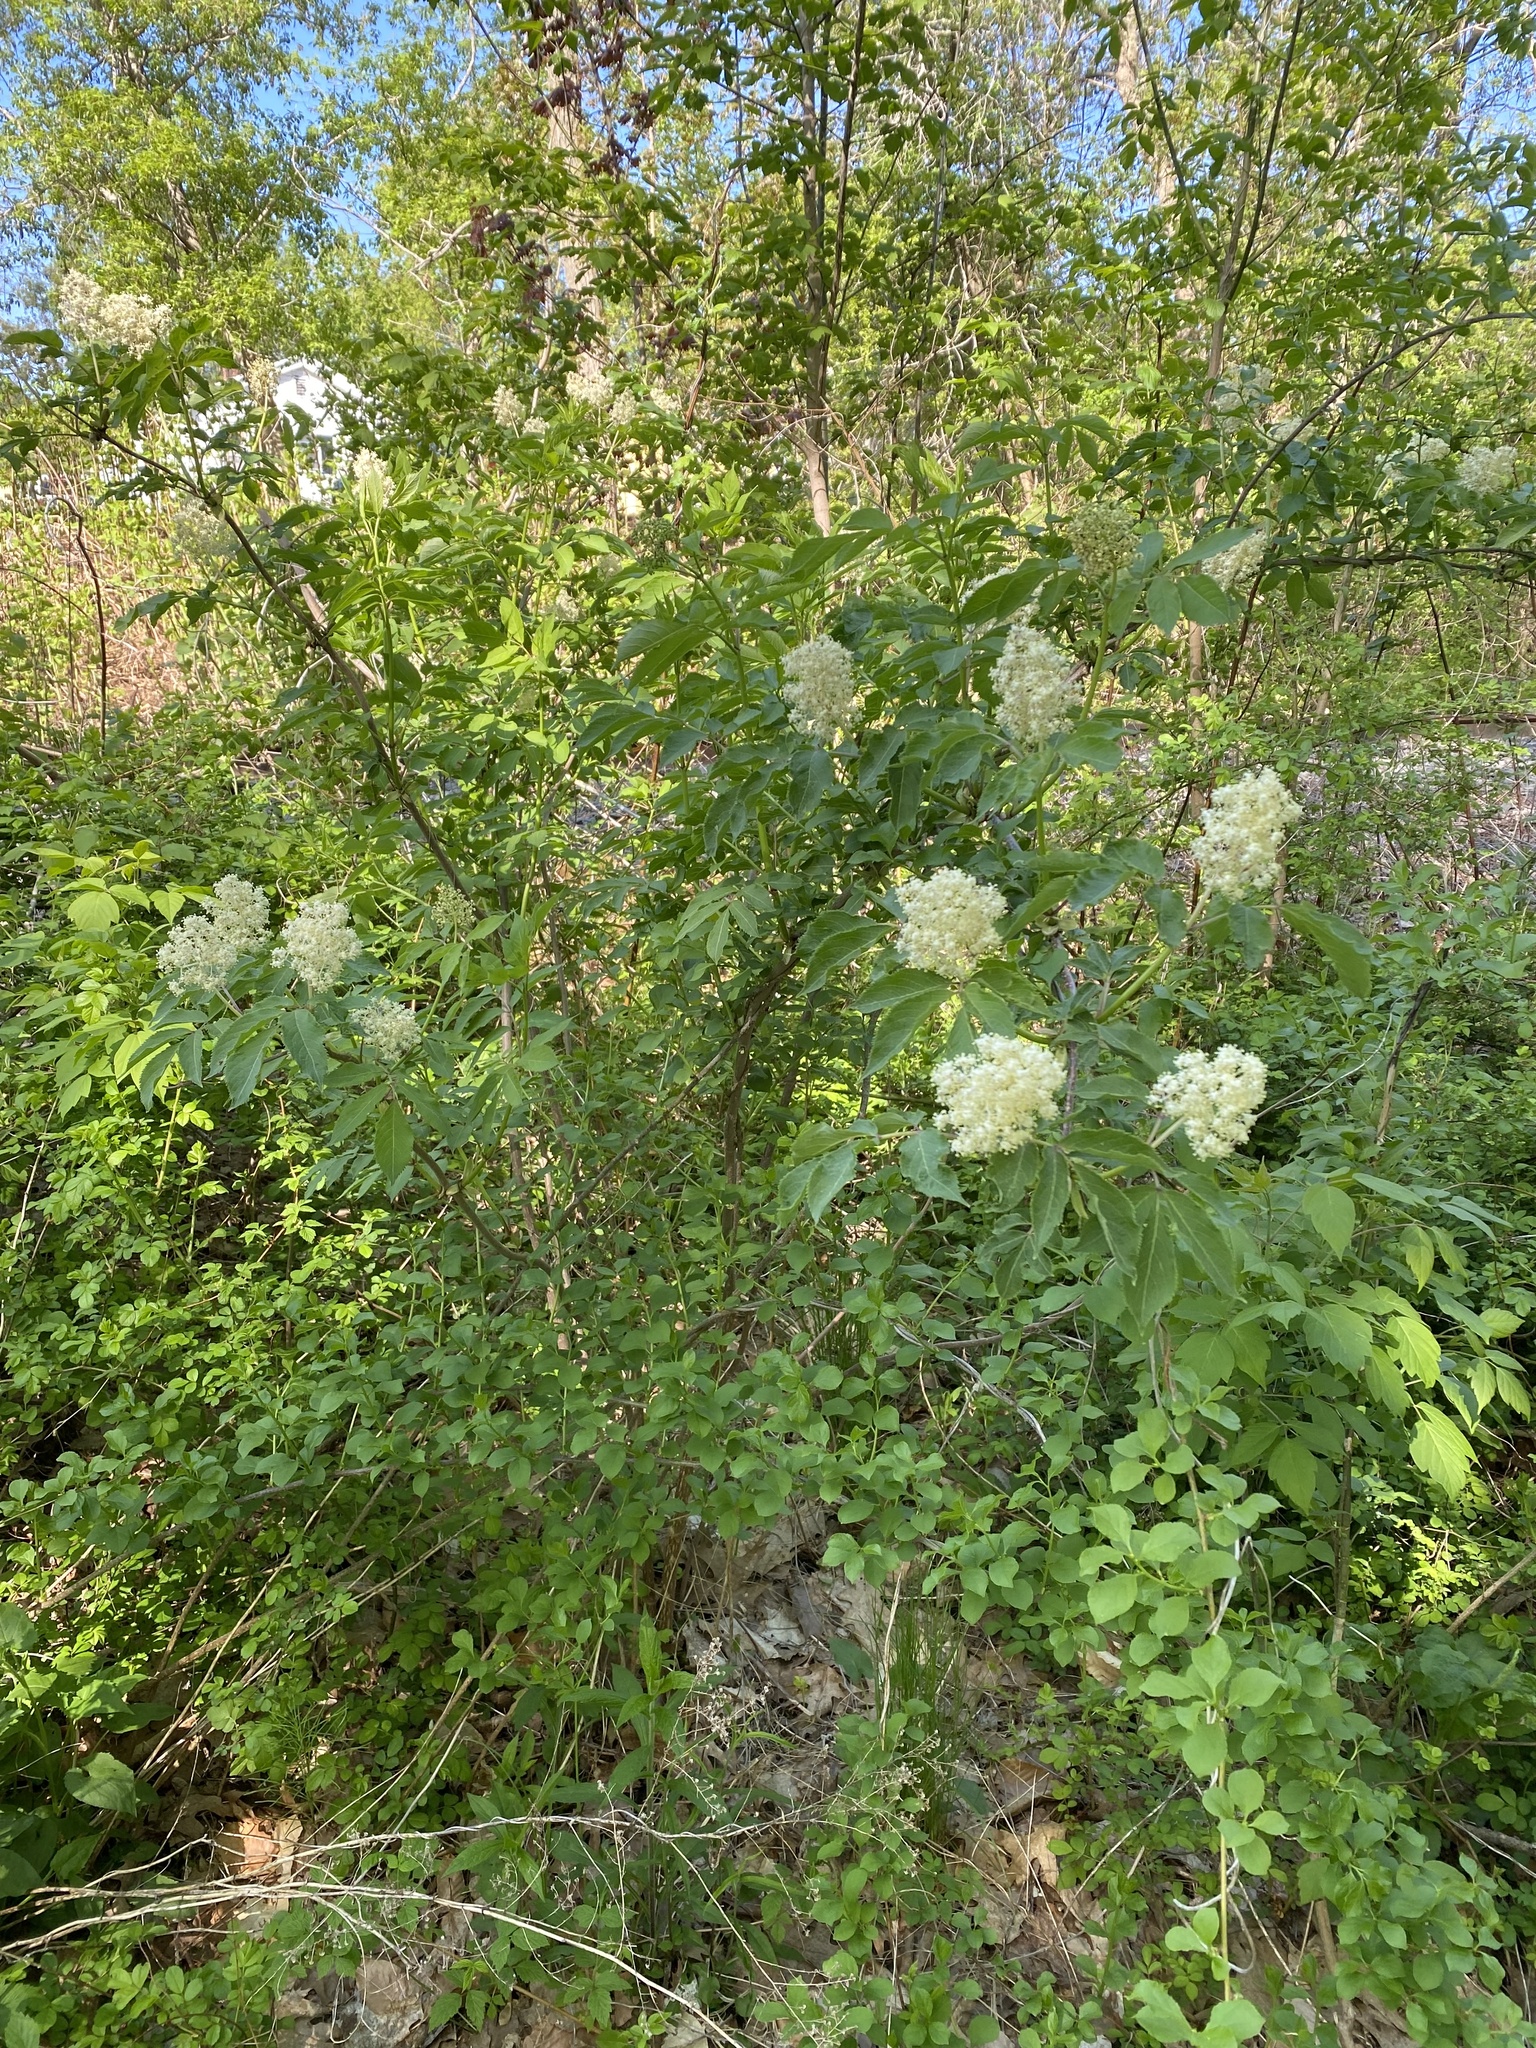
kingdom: Plantae
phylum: Tracheophyta
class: Magnoliopsida
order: Dipsacales
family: Viburnaceae
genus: Sambucus
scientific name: Sambucus racemosa
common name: Red-berried elder
